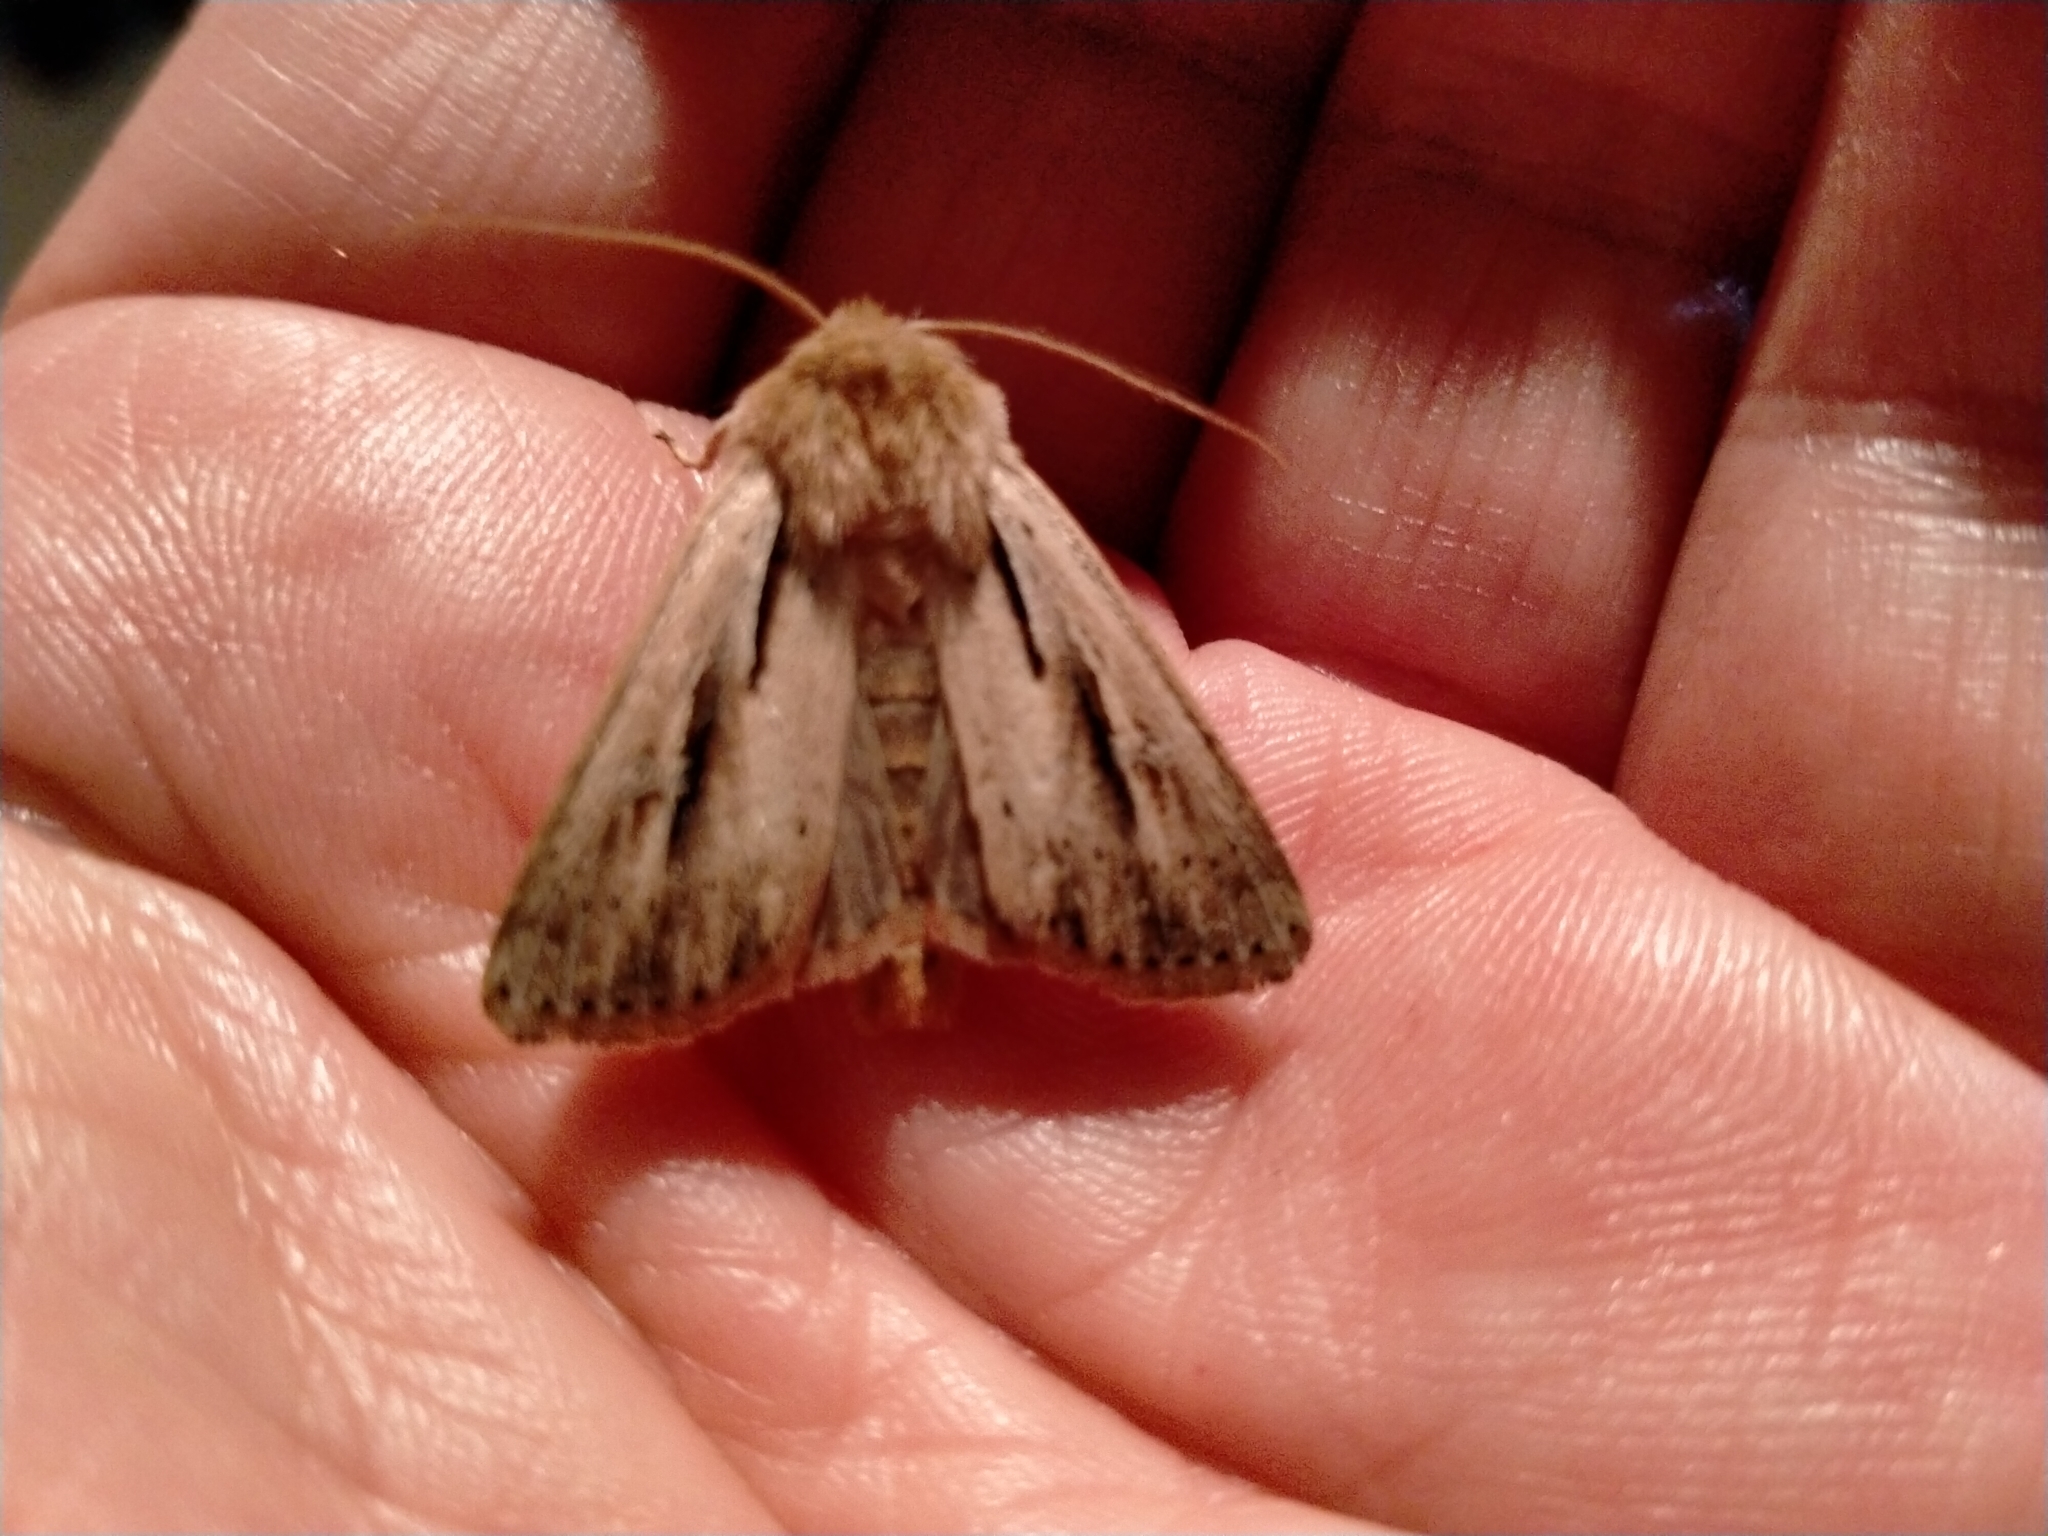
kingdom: Animalia
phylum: Arthropoda
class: Insecta
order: Lepidoptera
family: Noctuidae
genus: Ichneutica
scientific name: Ichneutica propria
